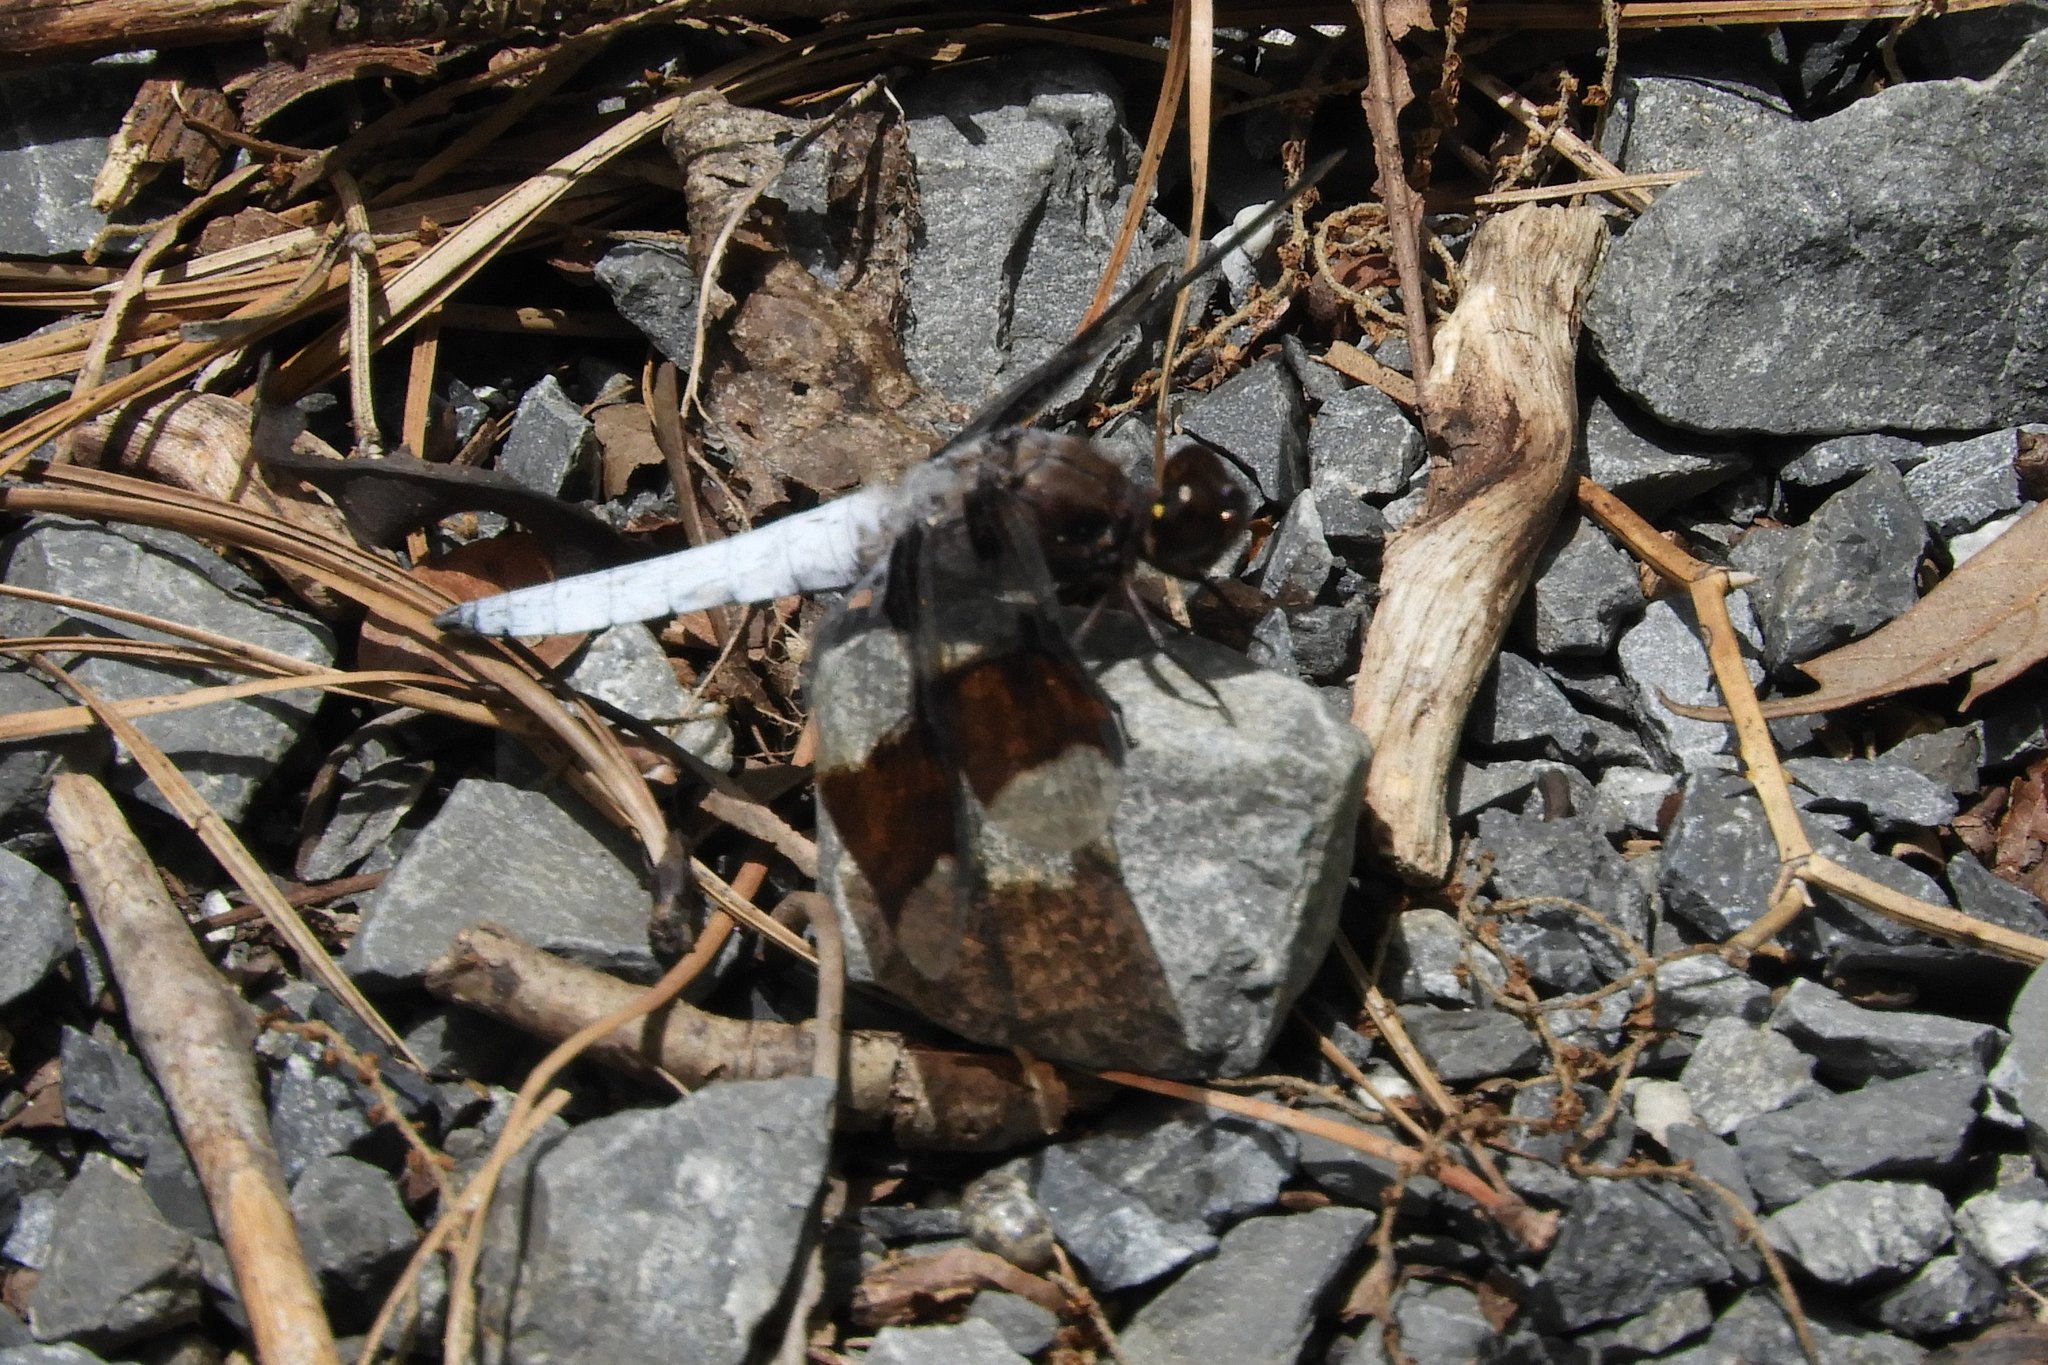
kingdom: Animalia
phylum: Arthropoda
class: Insecta
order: Odonata
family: Libellulidae
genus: Plathemis
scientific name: Plathemis lydia
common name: Common whitetail
